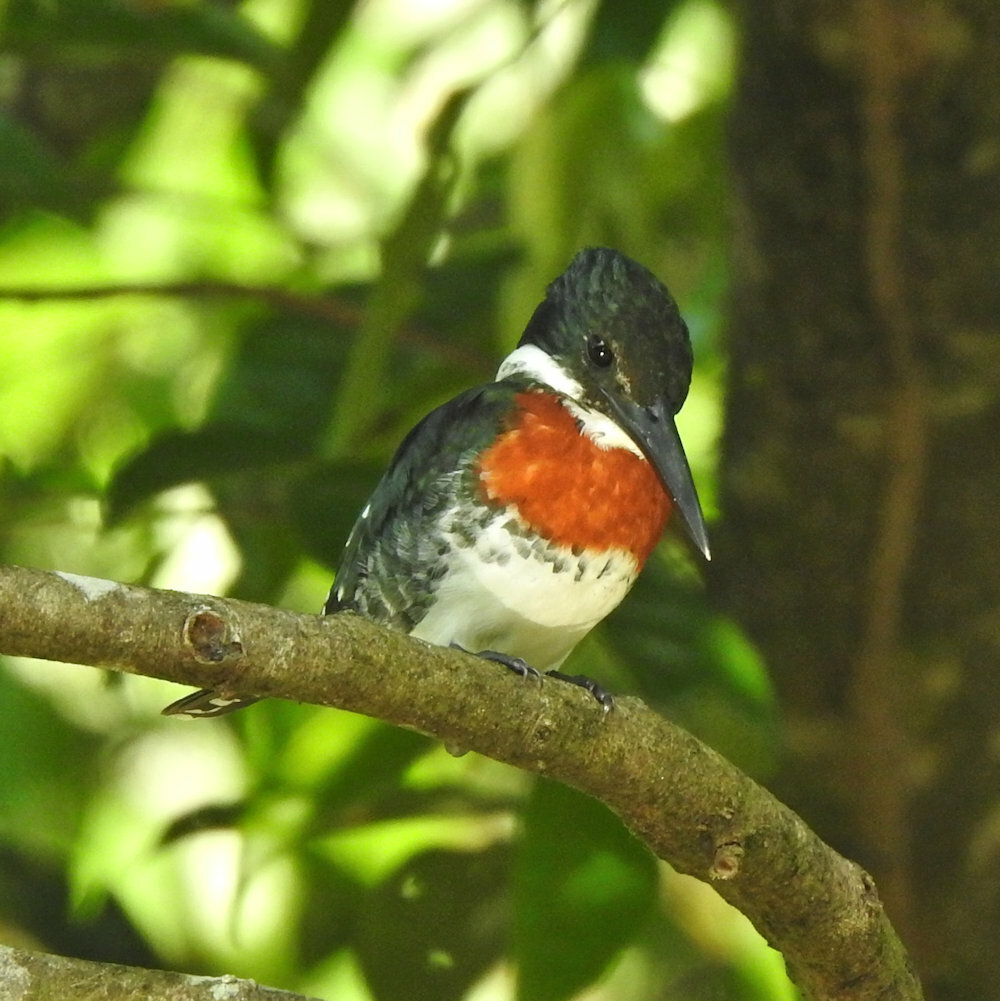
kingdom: Animalia
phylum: Chordata
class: Aves
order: Coraciiformes
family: Alcedinidae
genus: Chloroceryle
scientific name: Chloroceryle americana
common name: Green kingfisher
